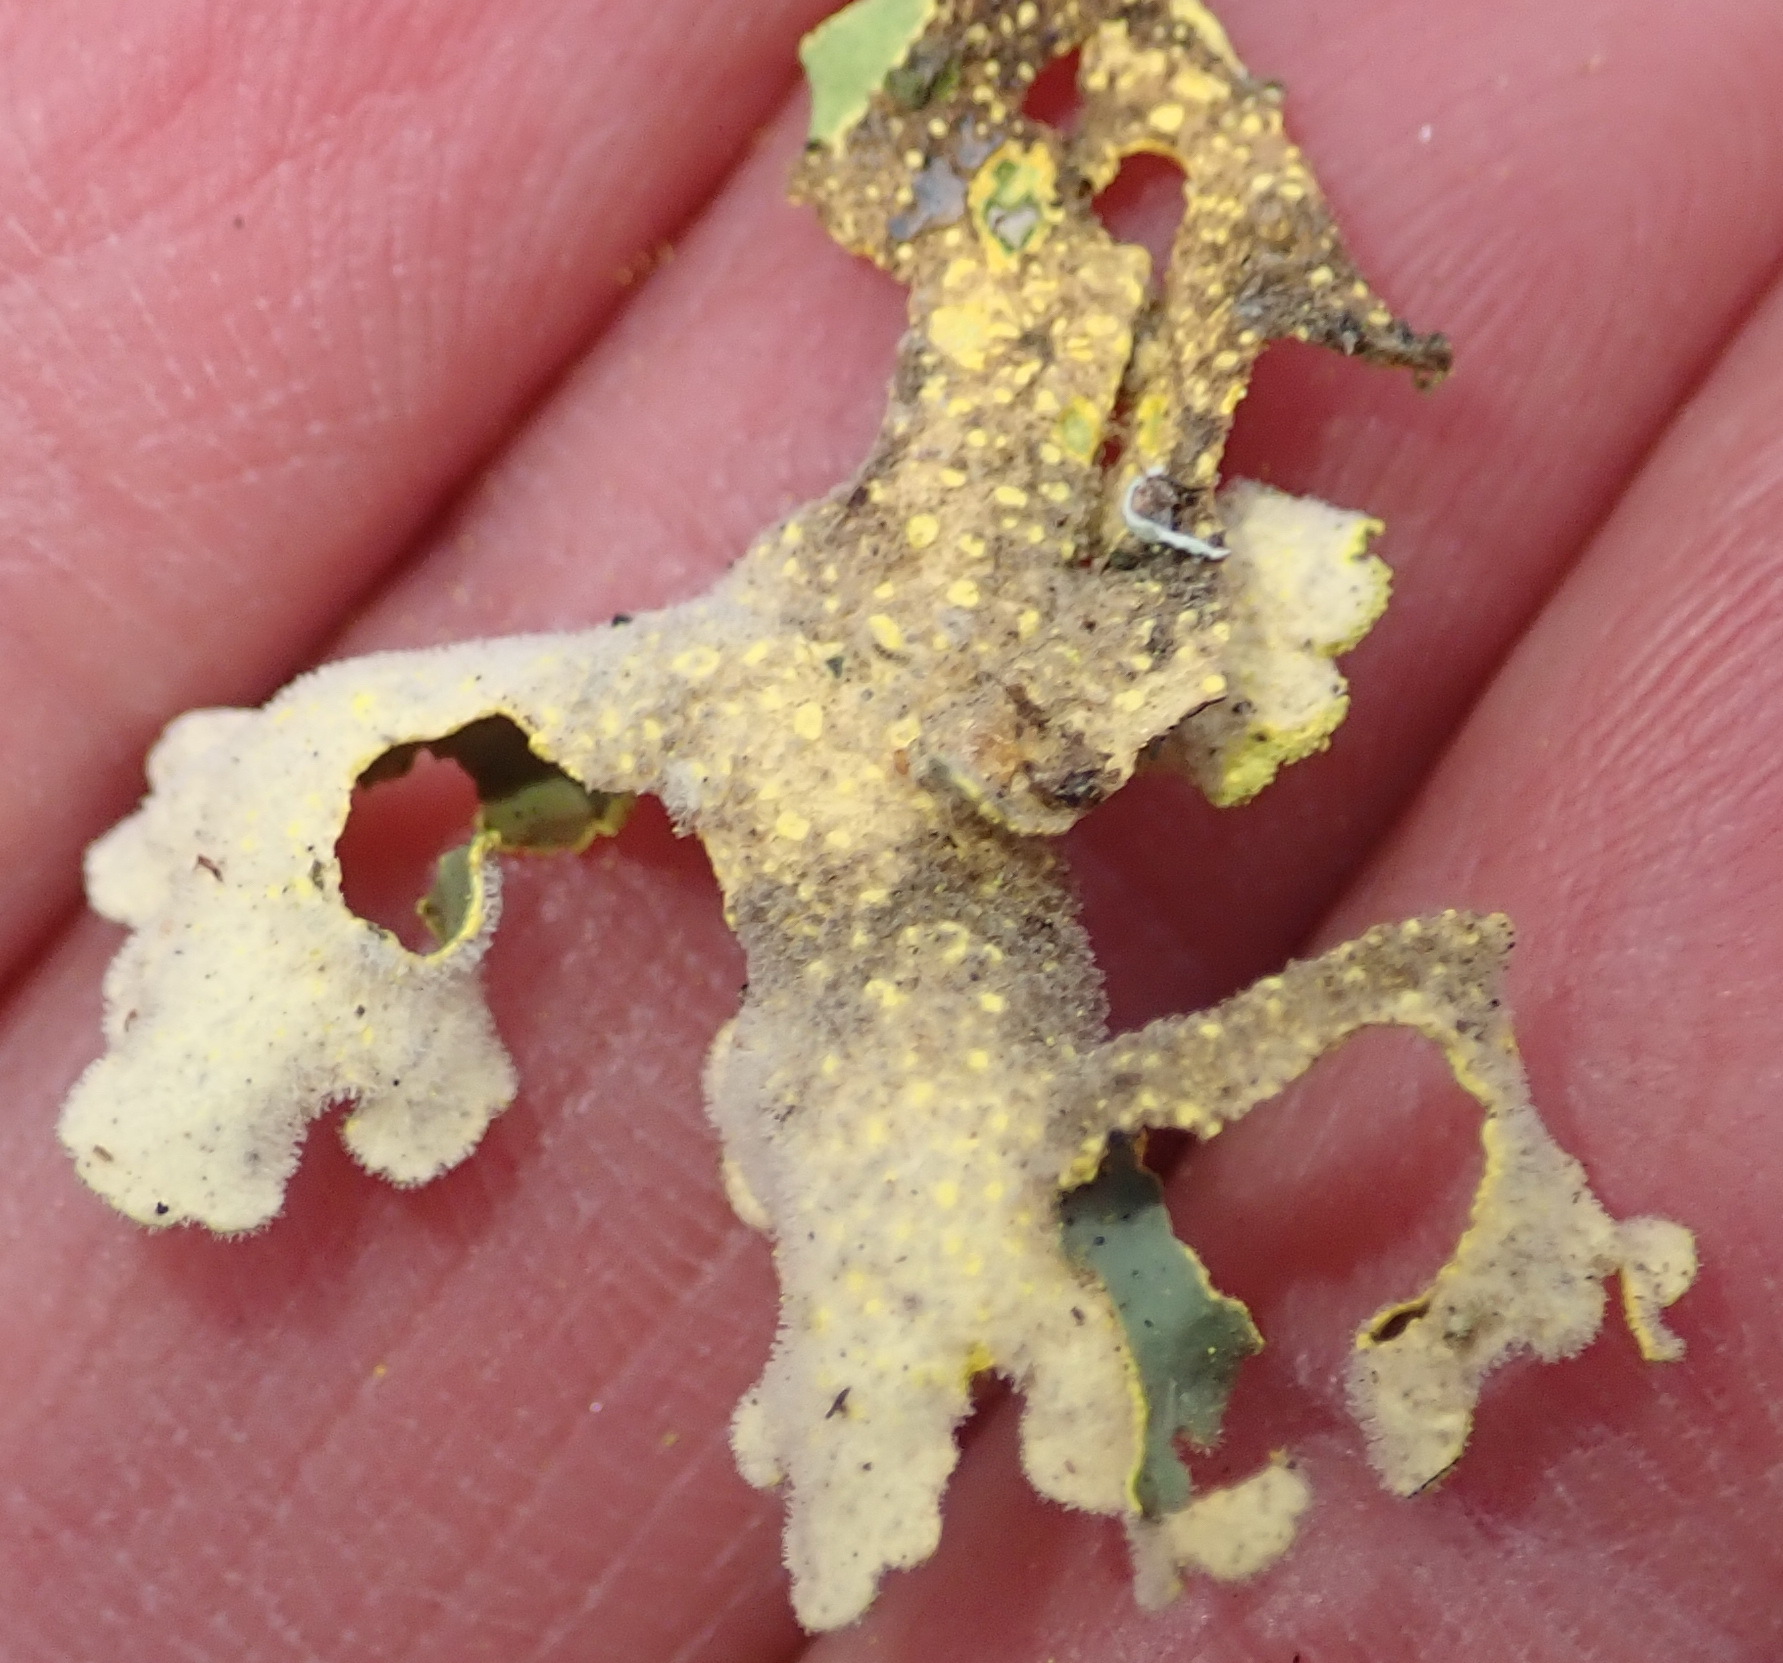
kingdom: Fungi
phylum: Ascomycota
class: Lecanoromycetes
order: Peltigerales
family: Lobariaceae
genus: Pseudocyphellaria
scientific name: Pseudocyphellaria aurata
